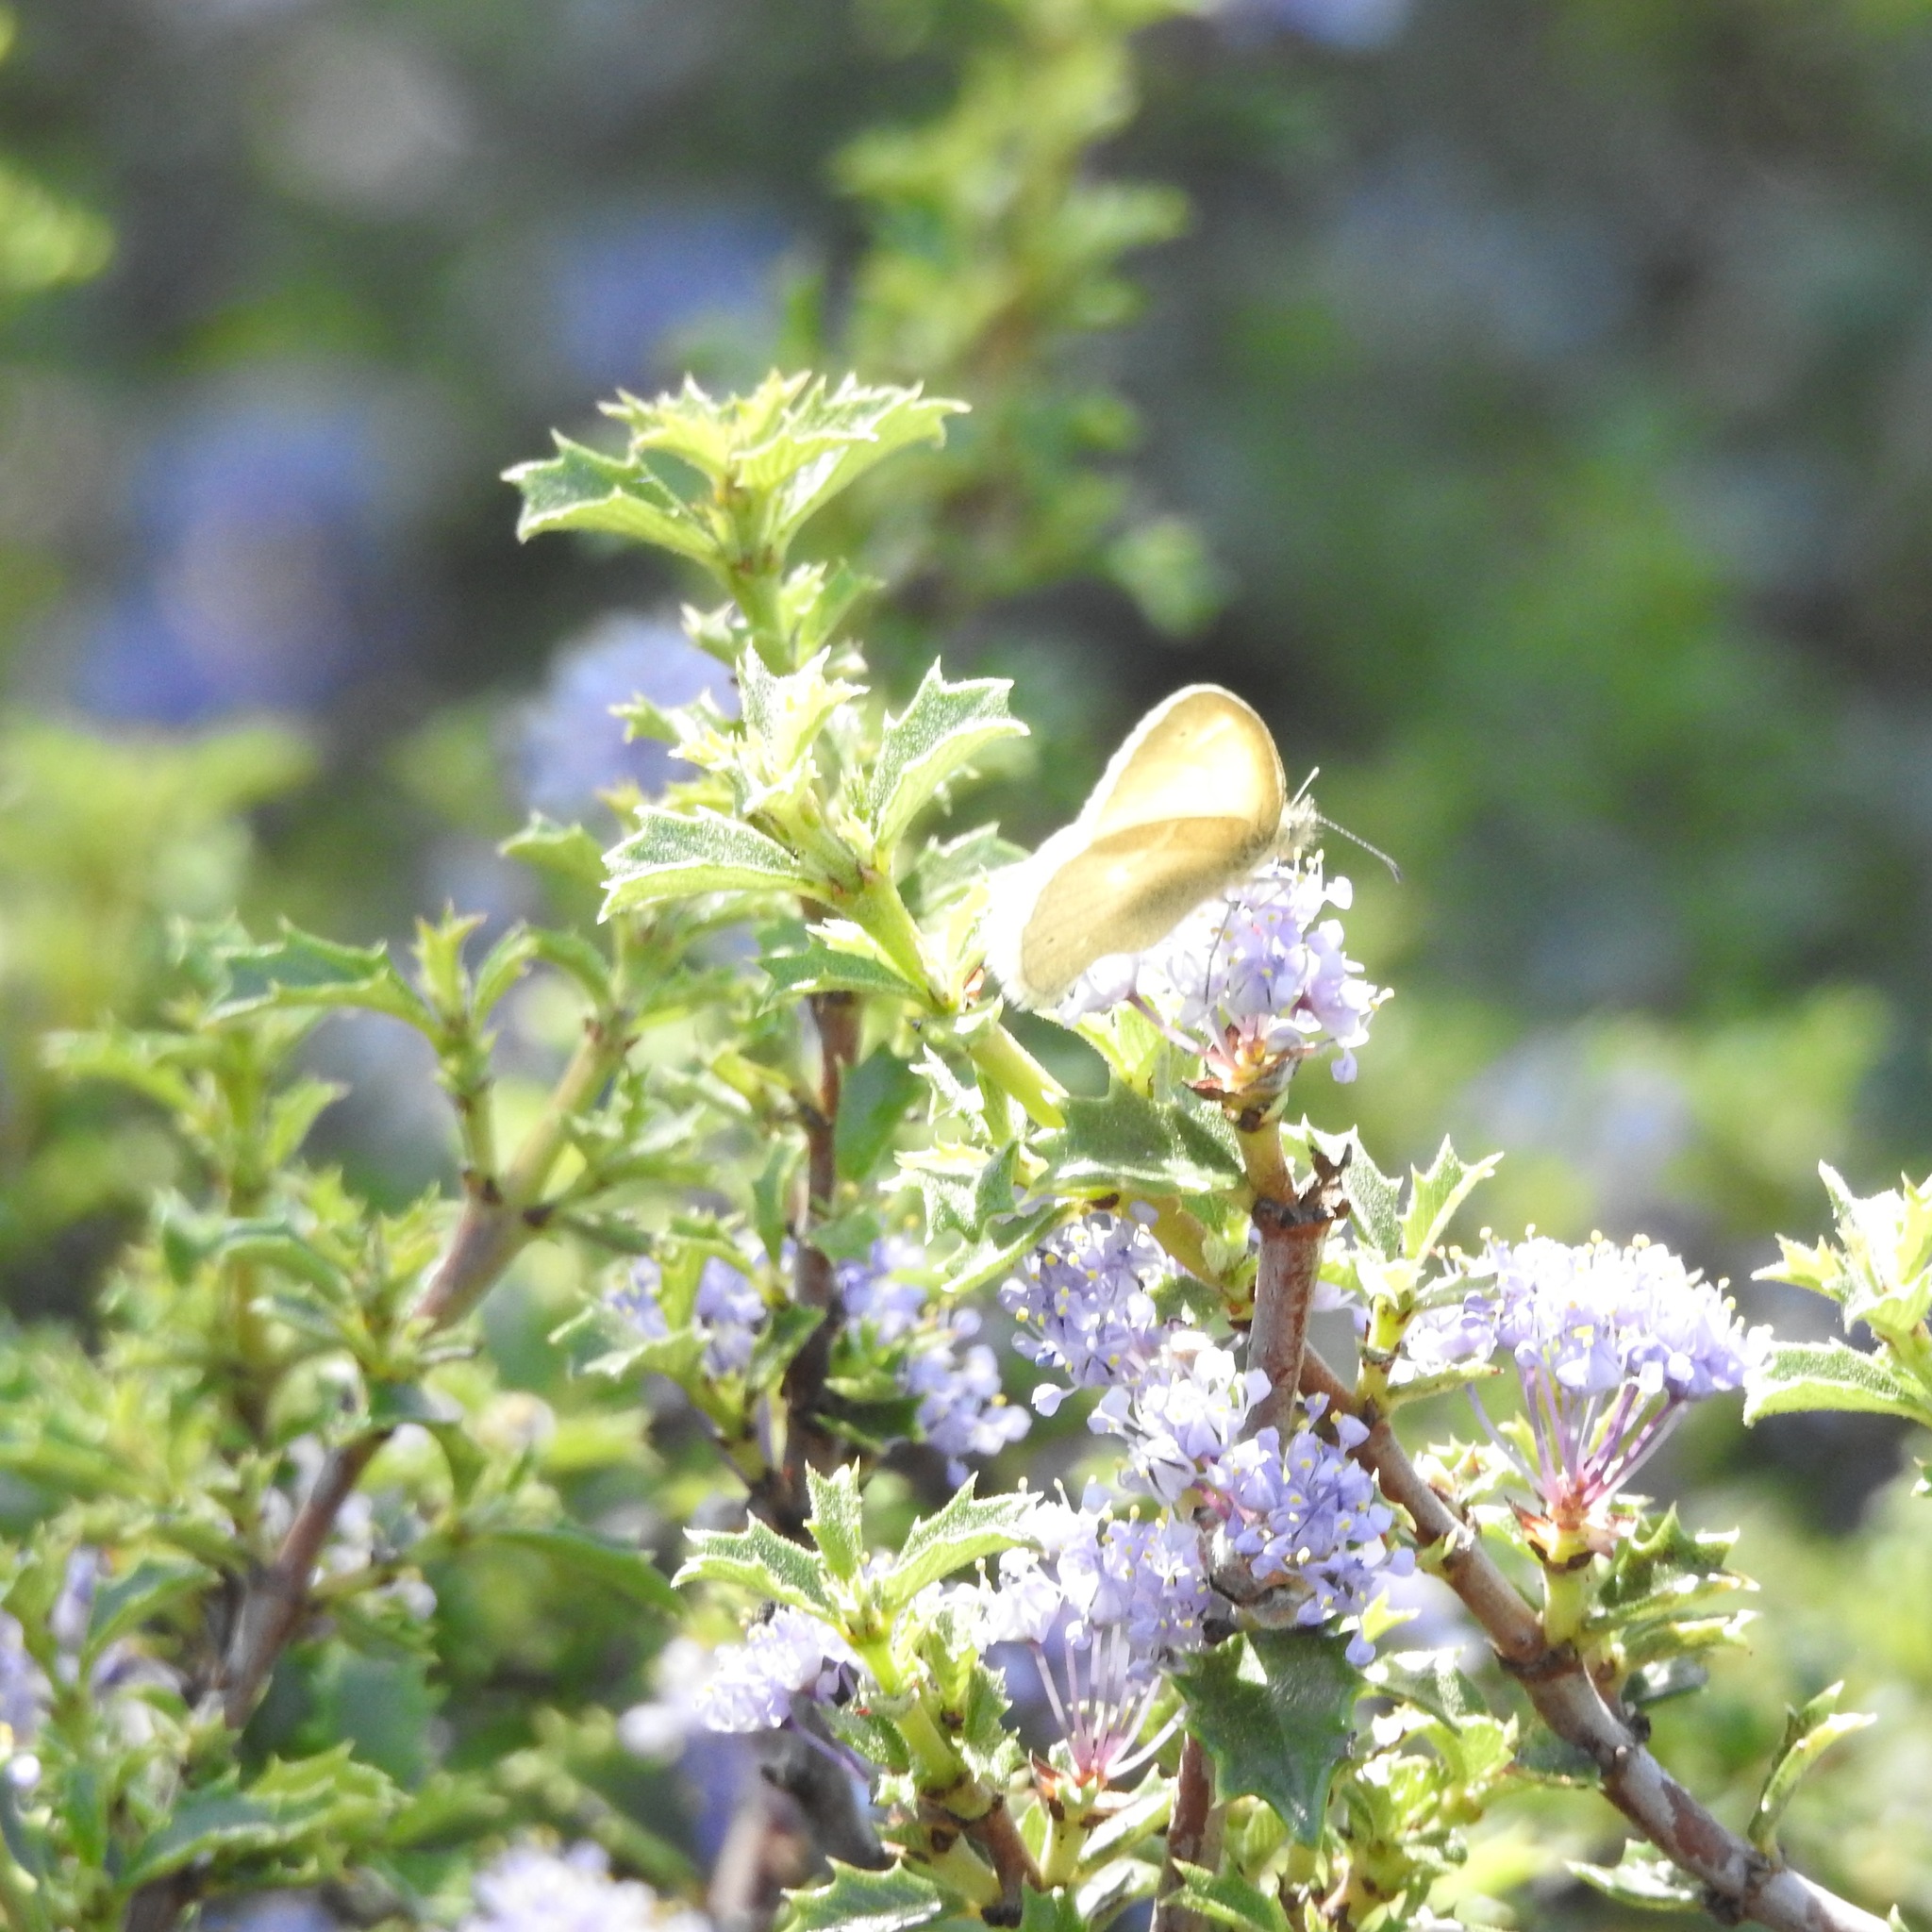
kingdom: Animalia
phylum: Arthropoda
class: Insecta
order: Lepidoptera
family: Nymphalidae
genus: Coenonympha
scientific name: Coenonympha california
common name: Common ringlet
